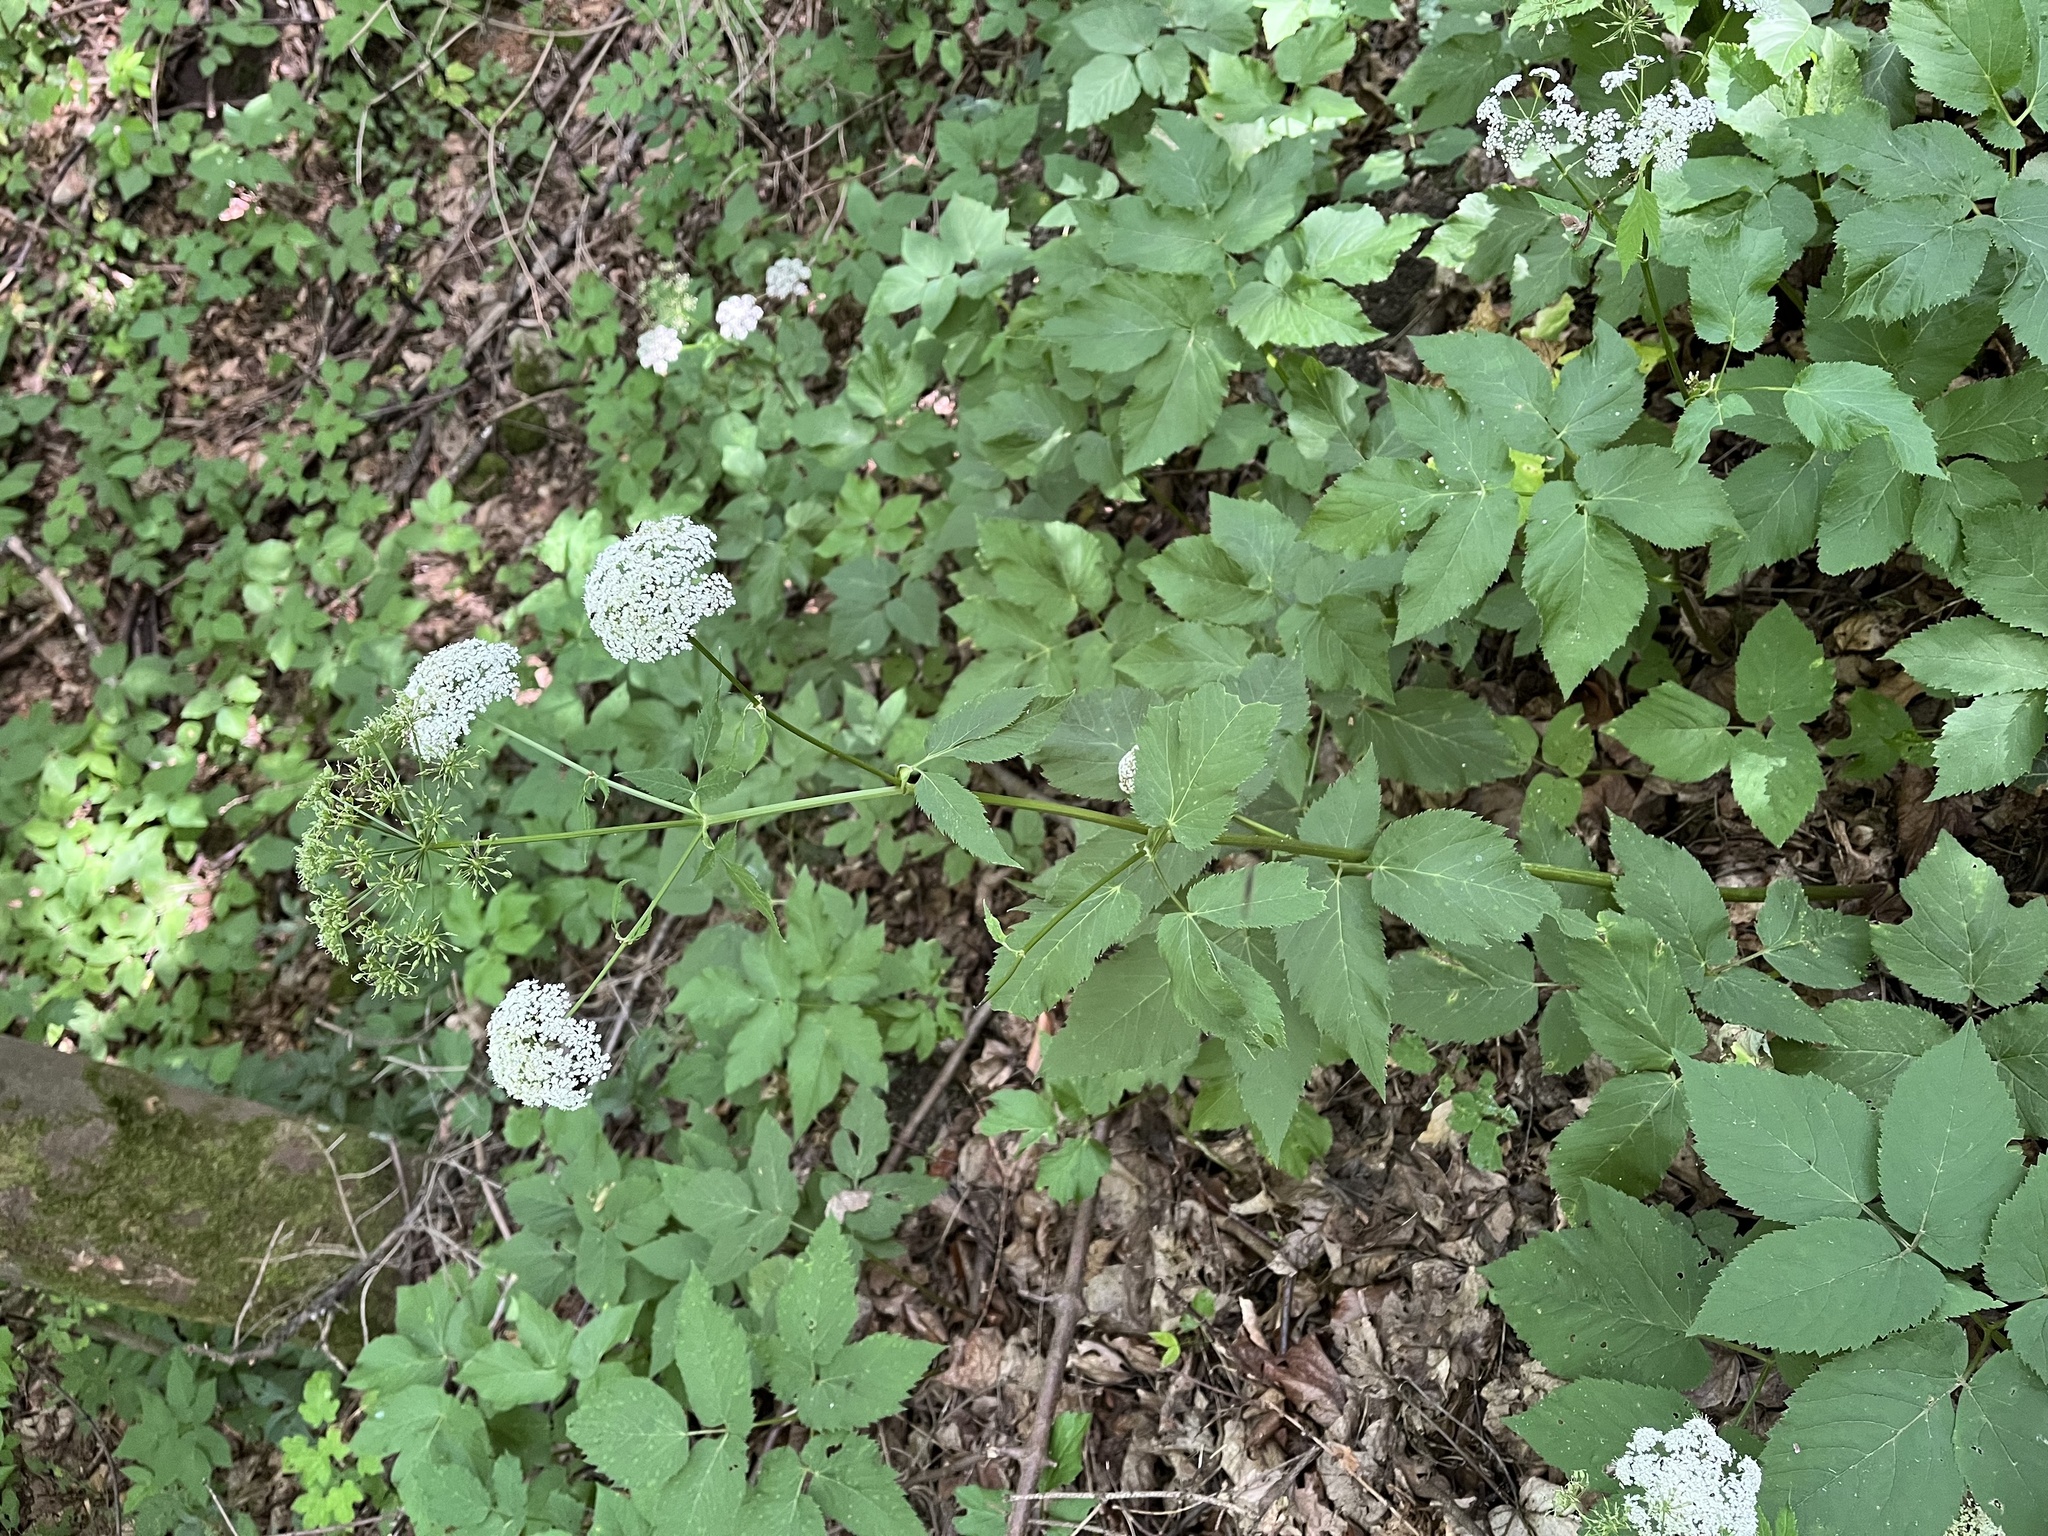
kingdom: Plantae
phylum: Tracheophyta
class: Magnoliopsida
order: Apiales
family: Apiaceae
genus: Aegopodium
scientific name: Aegopodium podagraria
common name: Ground-elder
